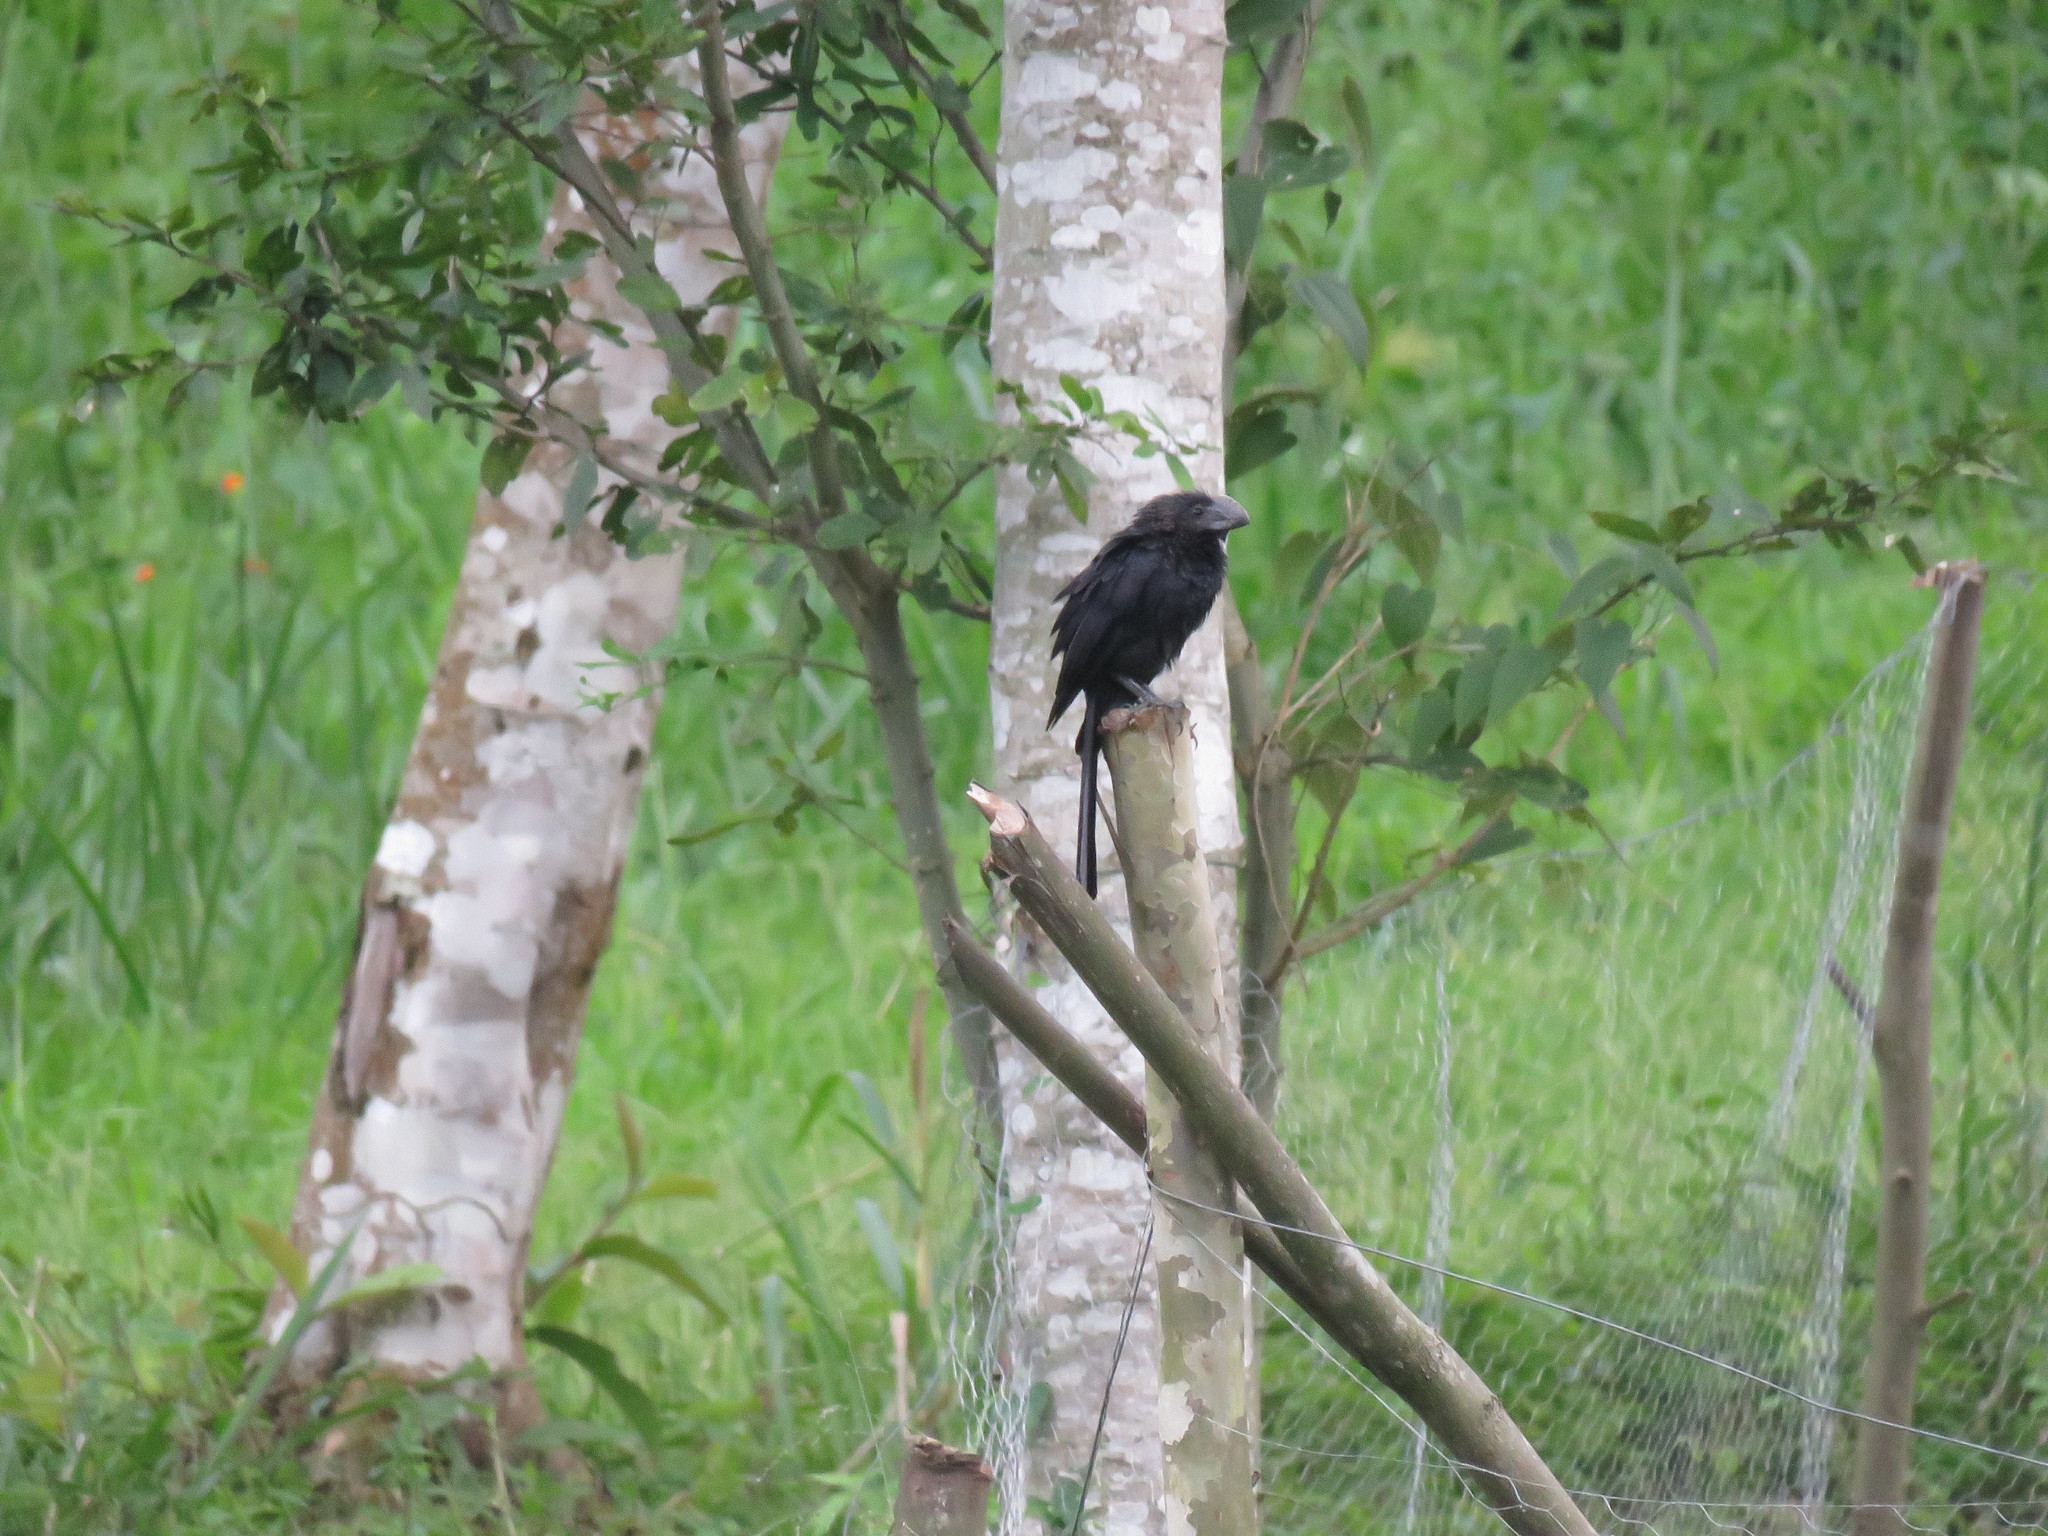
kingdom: Animalia
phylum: Chordata
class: Aves
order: Cuculiformes
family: Cuculidae
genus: Crotophaga
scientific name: Crotophaga ani
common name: Smooth-billed ani
